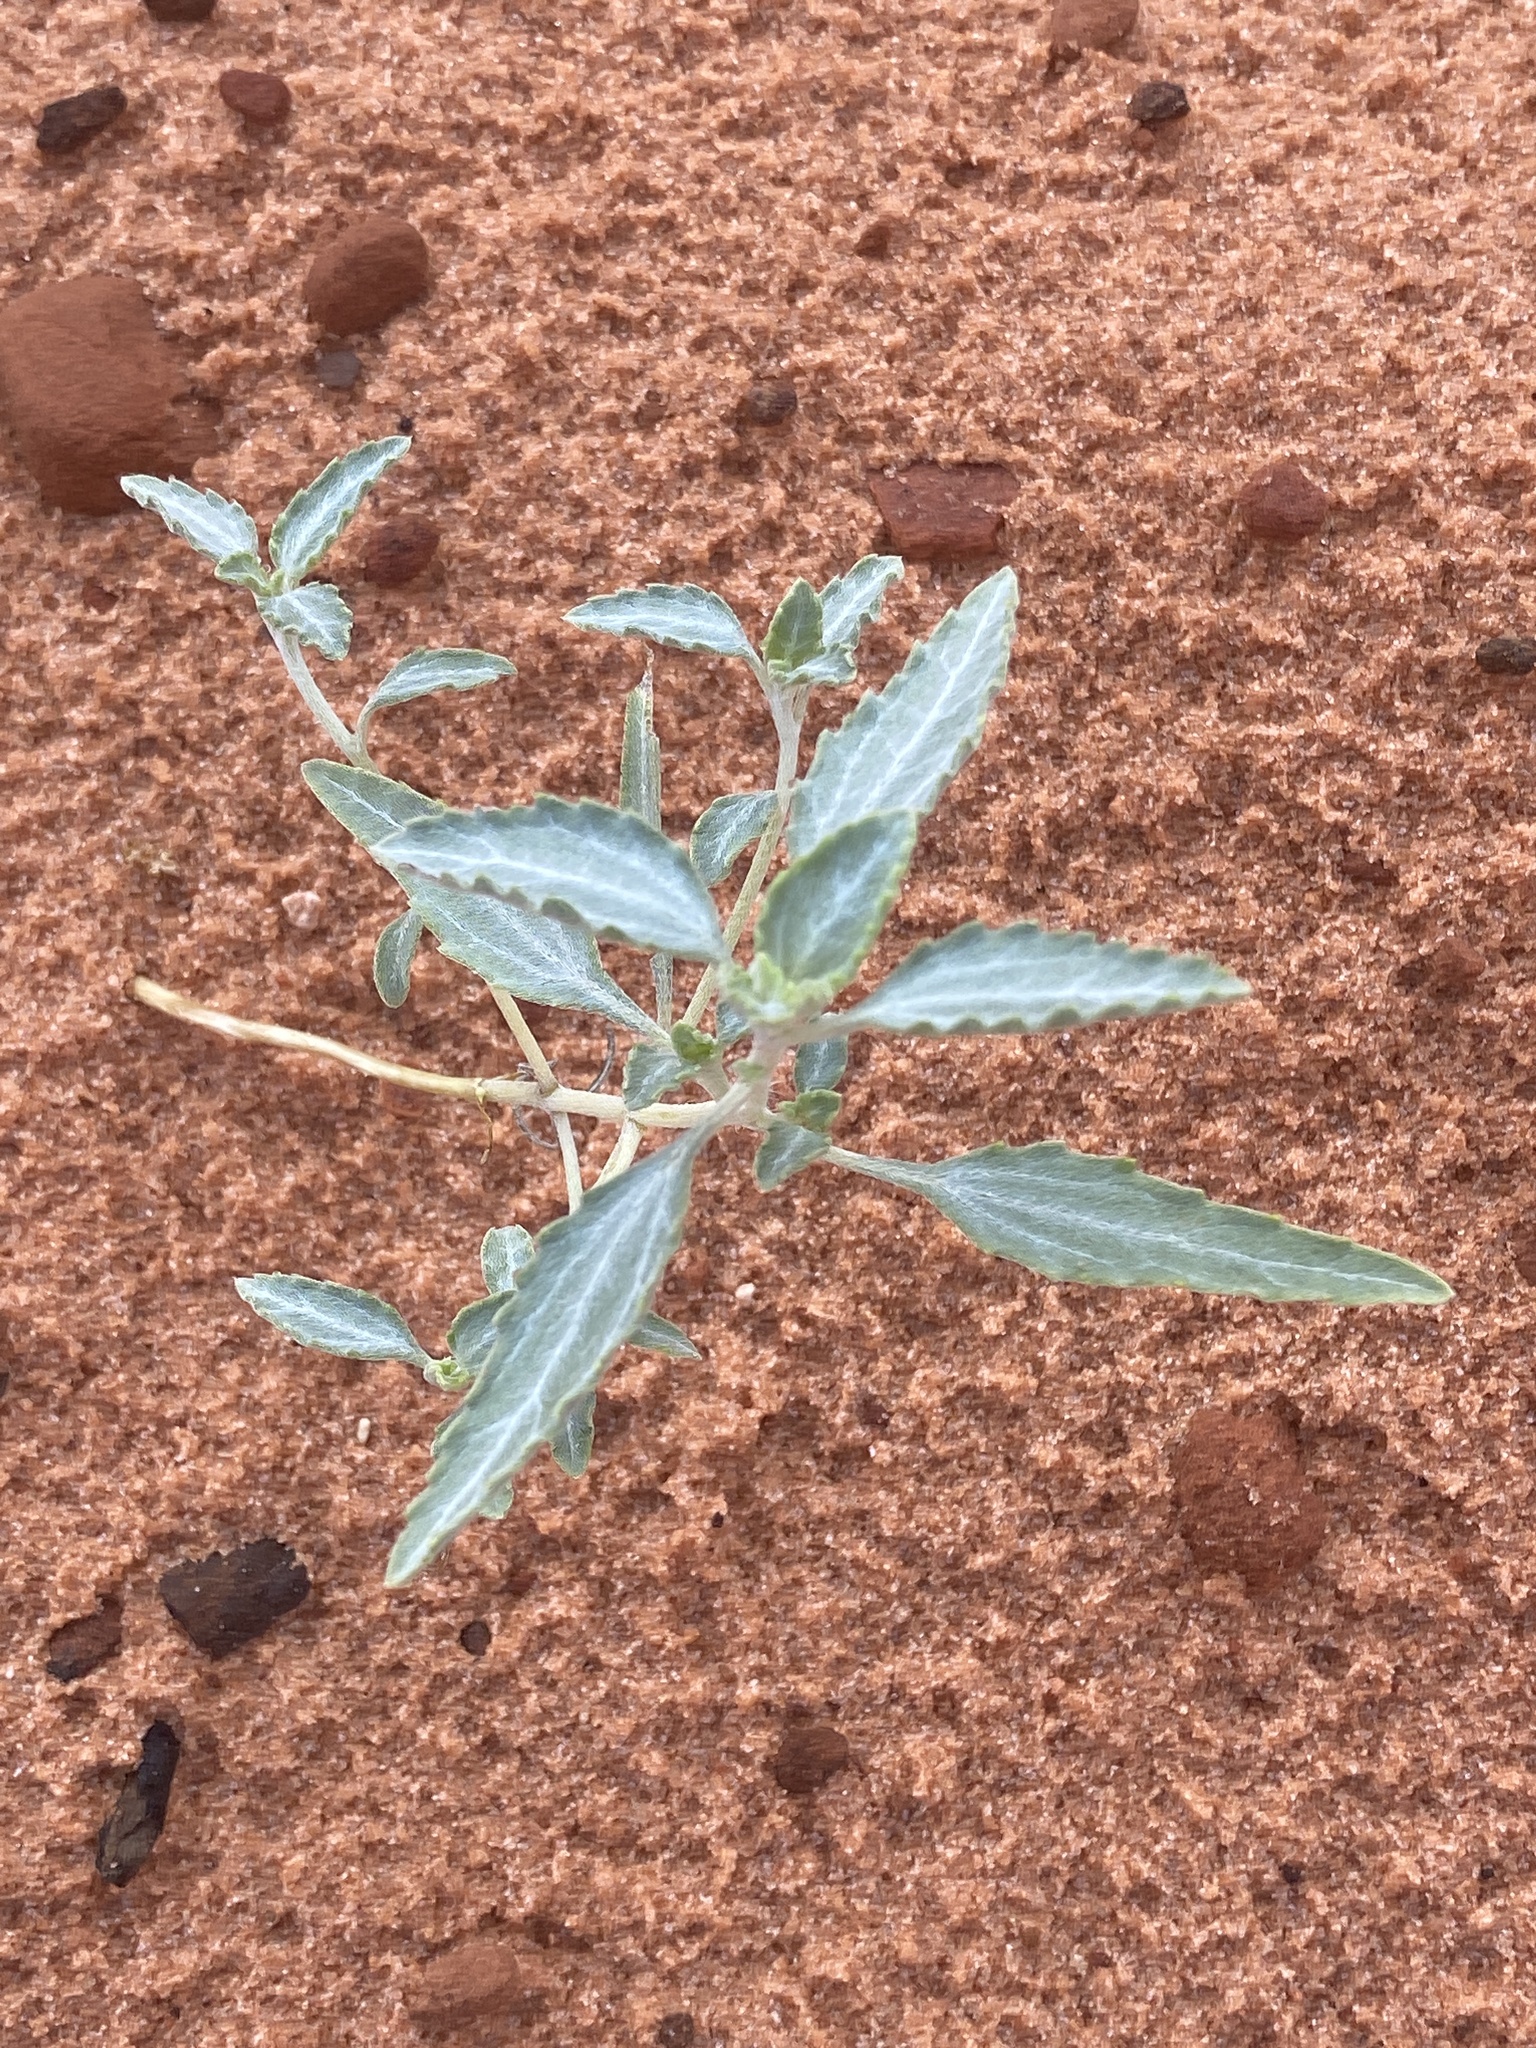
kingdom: Plantae
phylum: Tracheophyta
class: Magnoliopsida
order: Asterales
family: Asteraceae
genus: Dicoria
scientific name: Dicoria canescens
